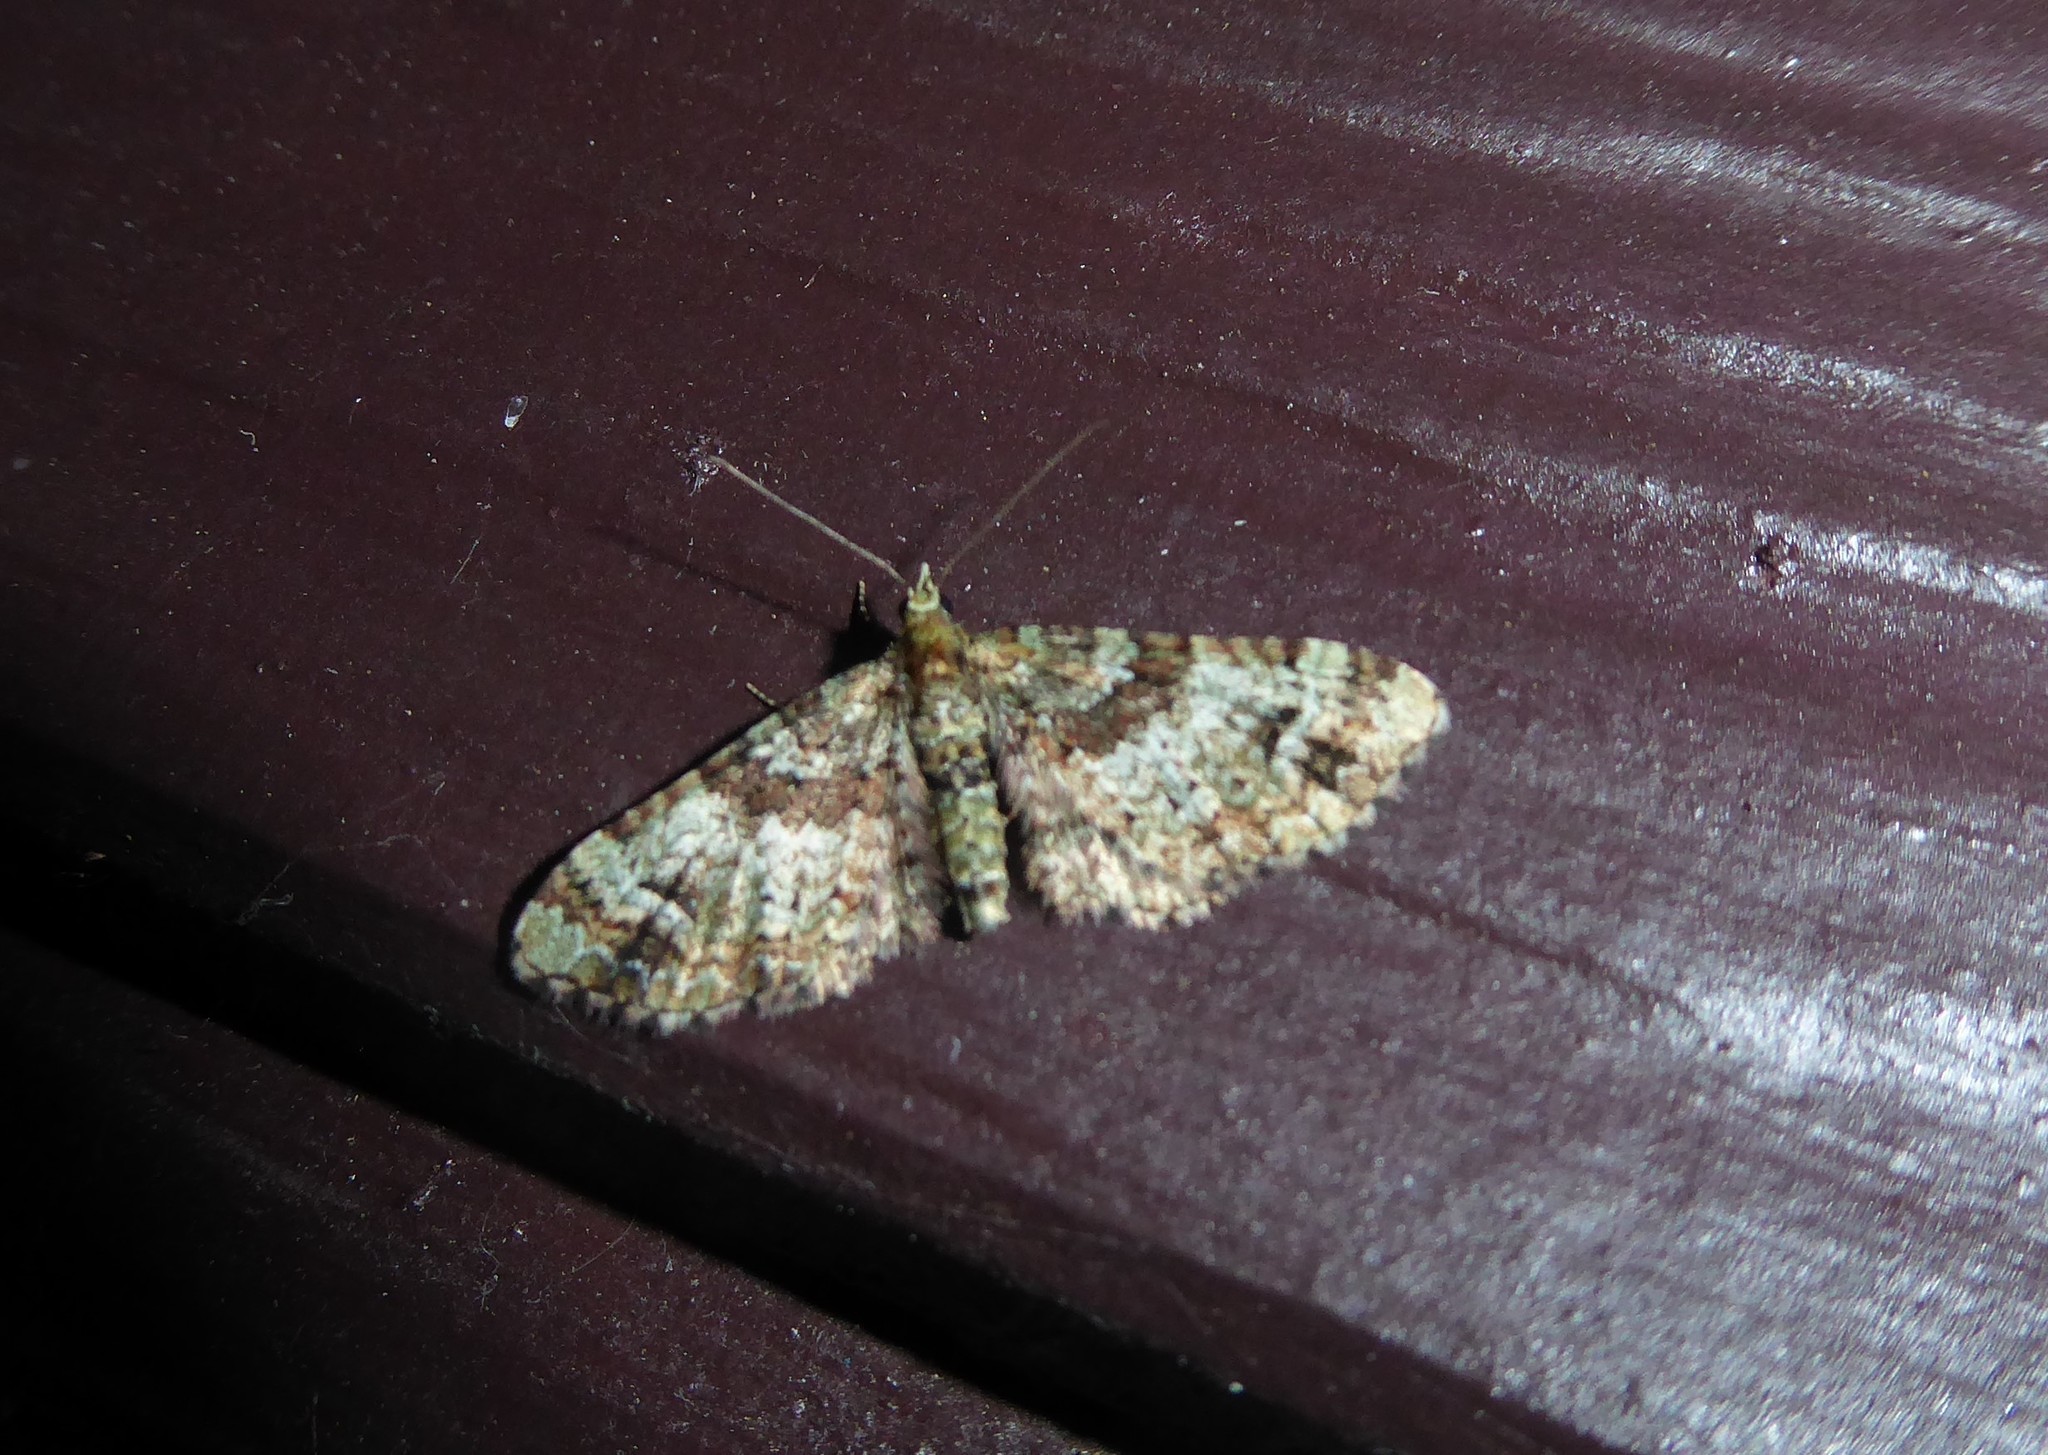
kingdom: Animalia
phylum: Arthropoda
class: Insecta
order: Lepidoptera
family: Geometridae
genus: Pasiphila
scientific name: Pasiphila bilineolata
